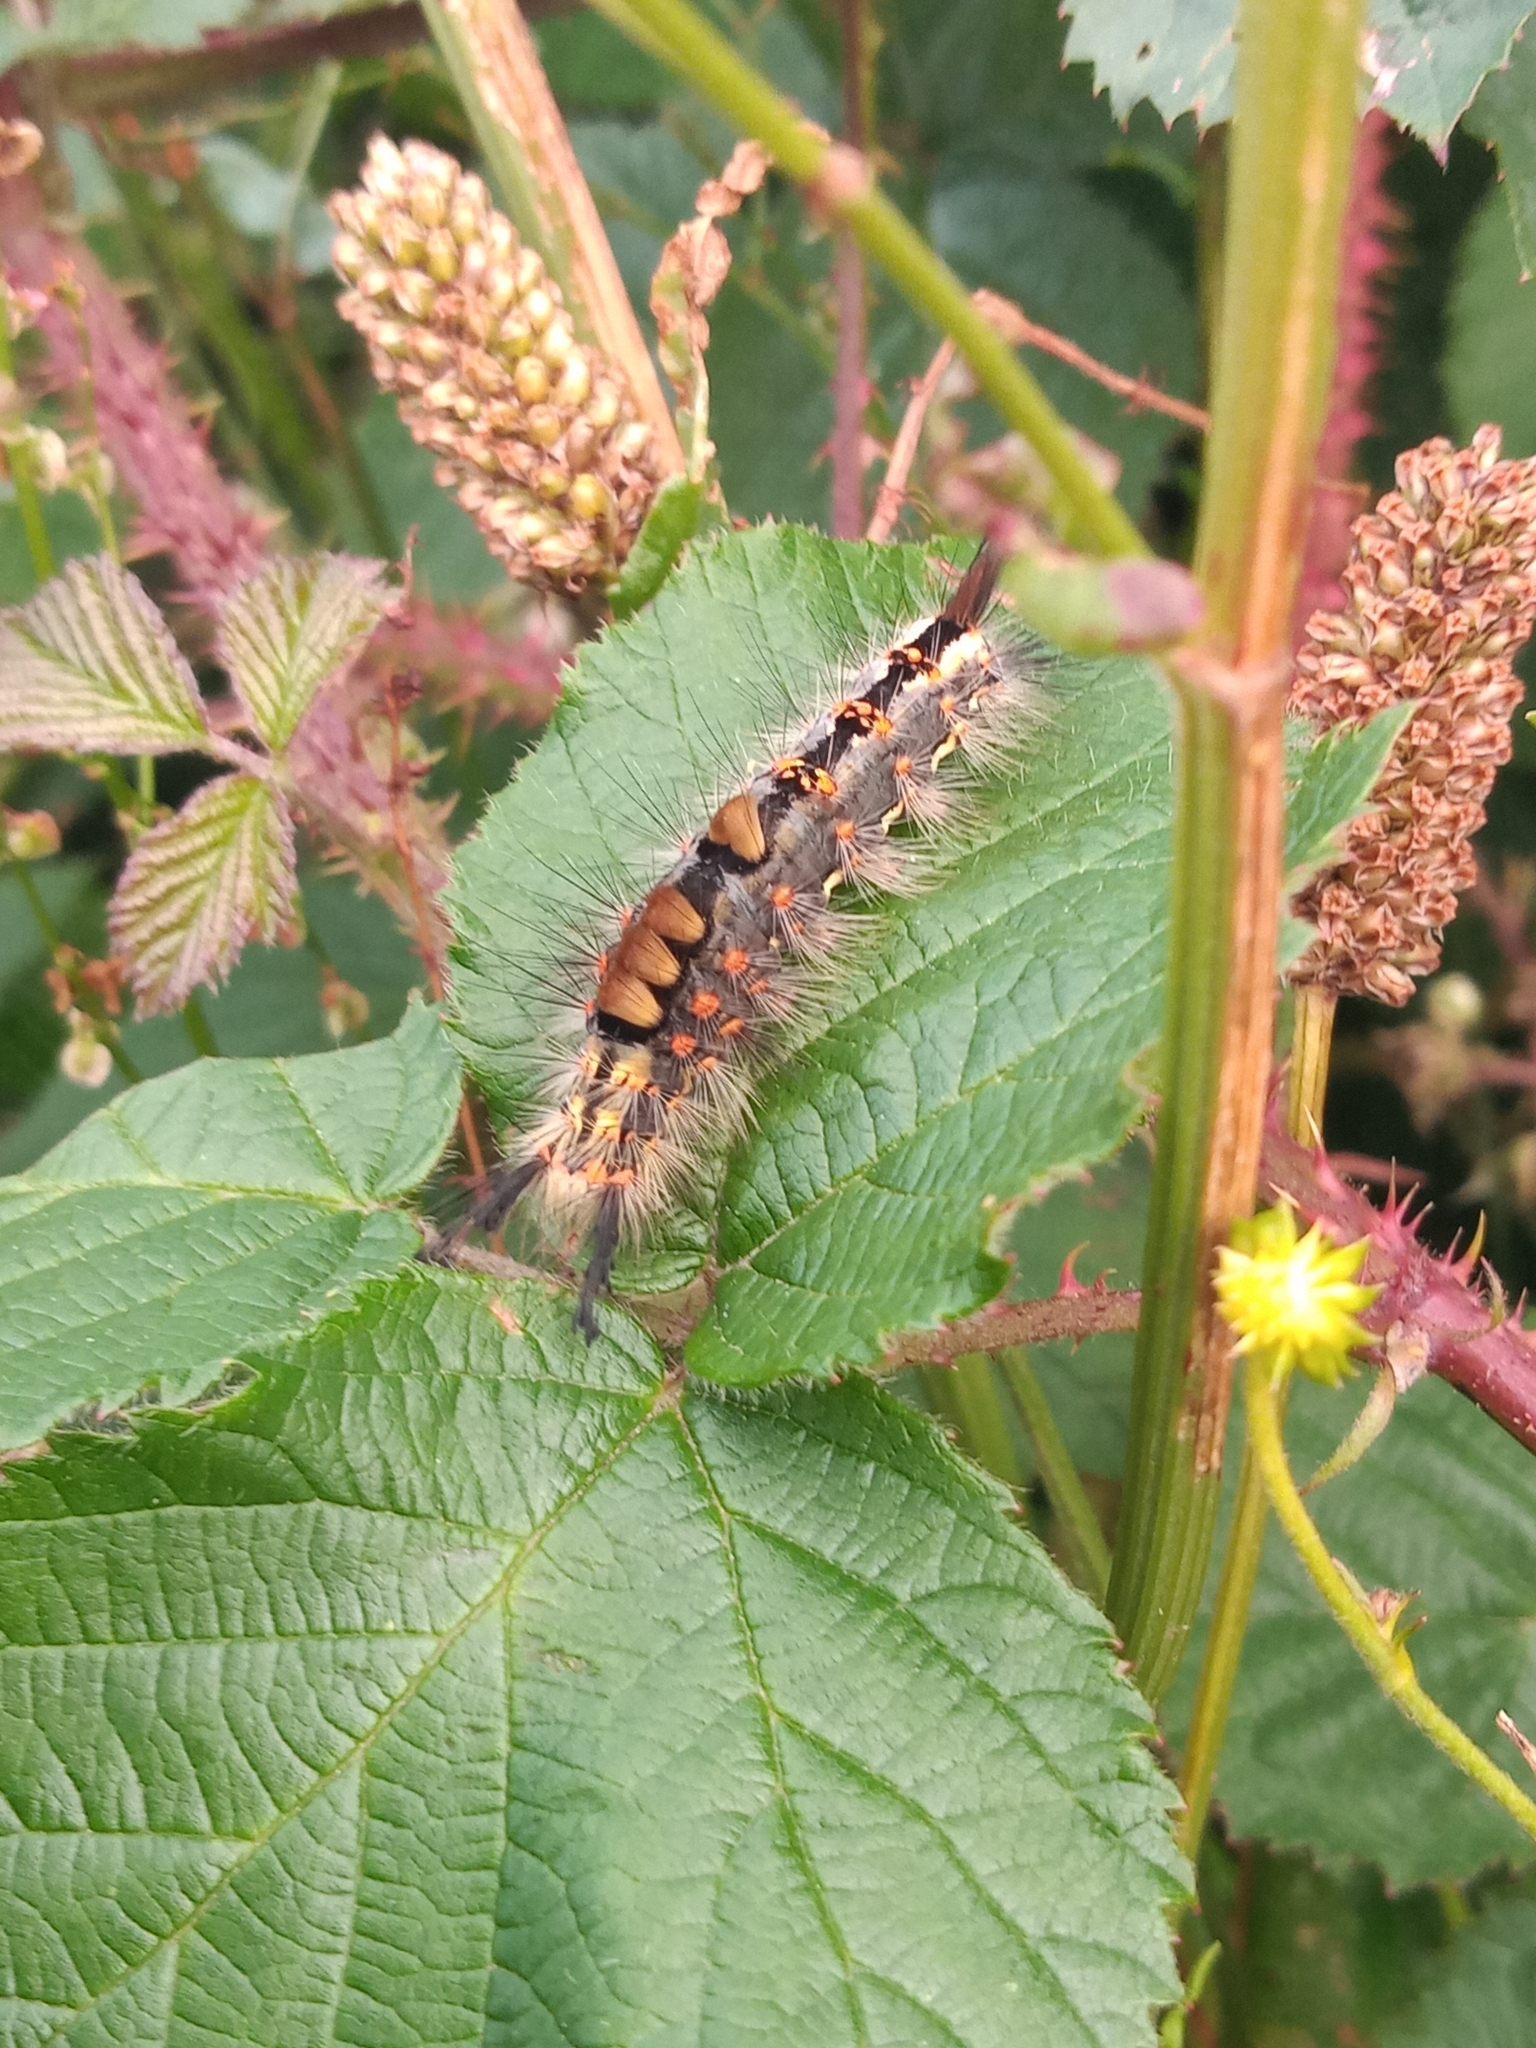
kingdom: Animalia
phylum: Arthropoda
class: Insecta
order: Lepidoptera
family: Erebidae
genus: Orgyia
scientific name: Orgyia antiqua
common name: Vapourer
